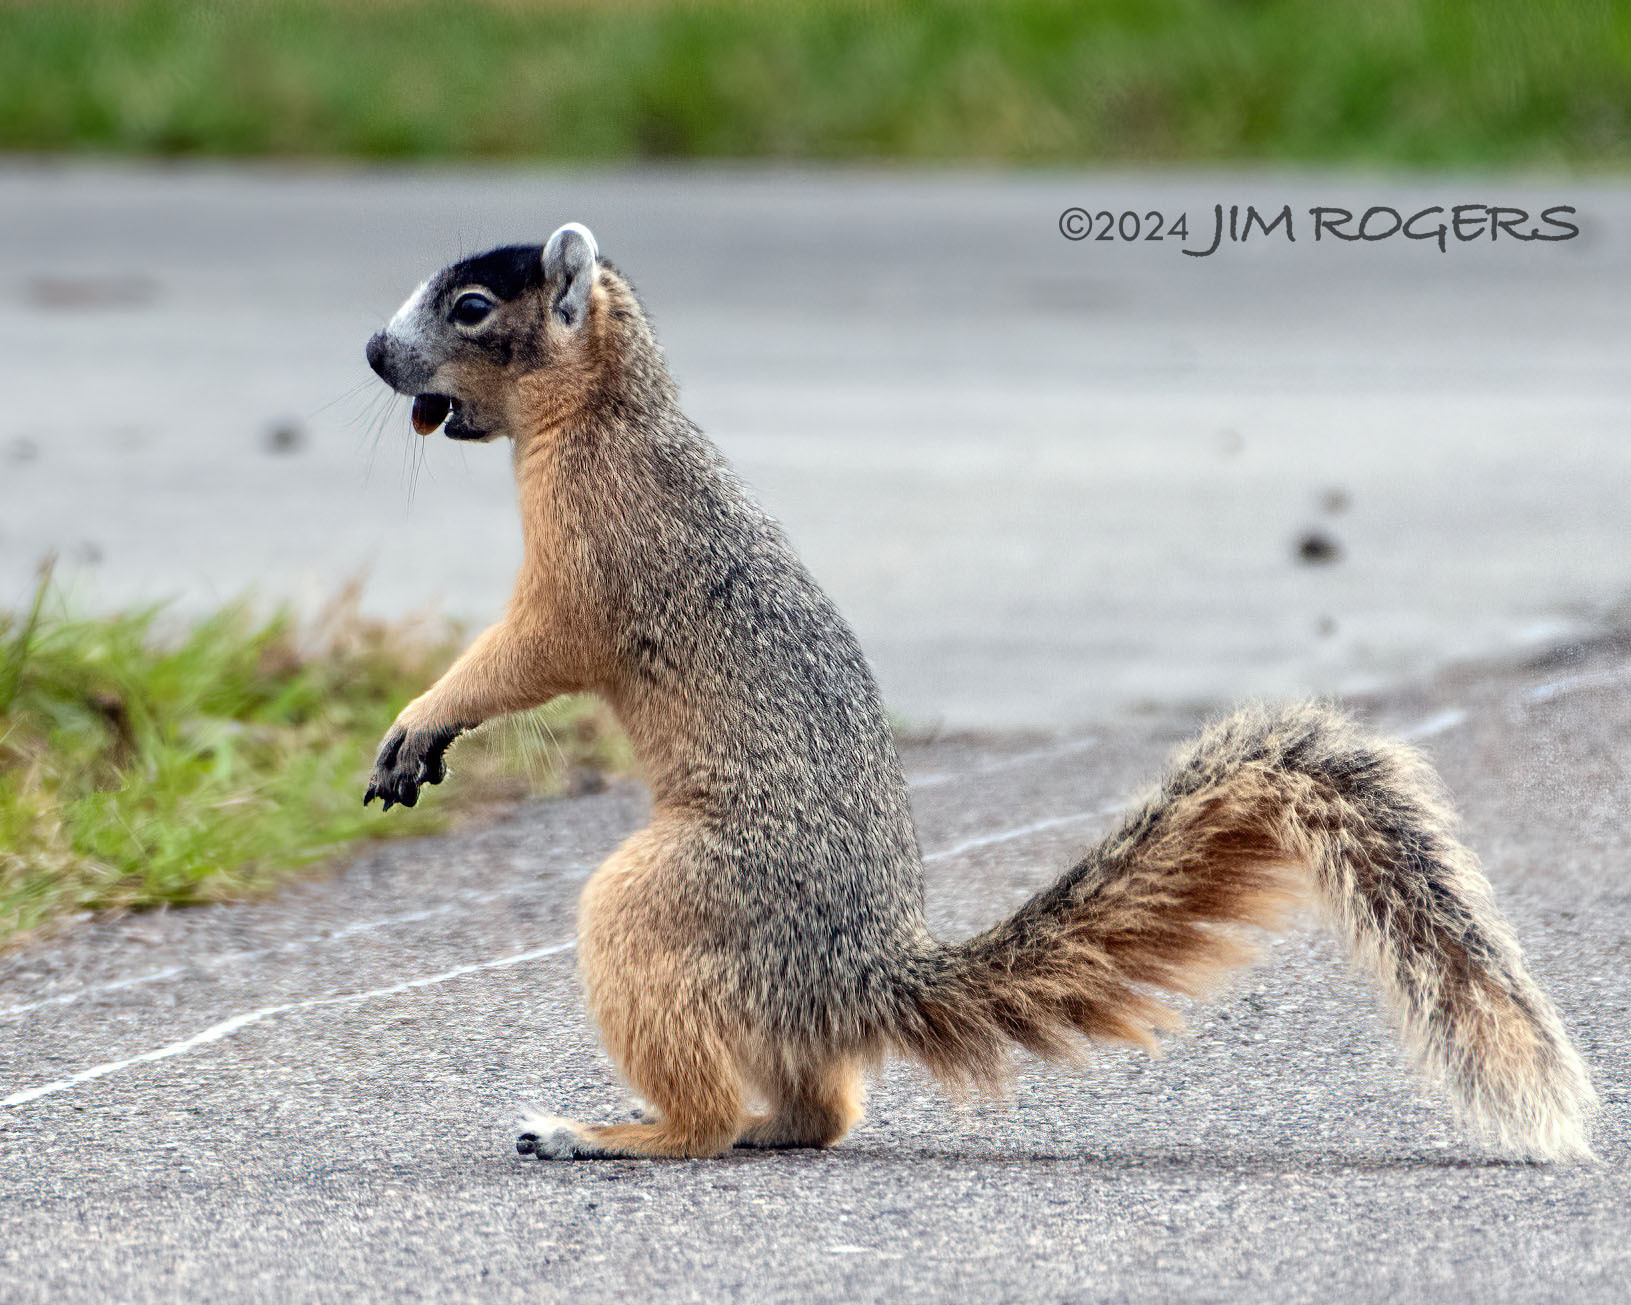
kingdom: Animalia
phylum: Chordata
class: Mammalia
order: Rodentia
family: Sciuridae
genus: Sciurus
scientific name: Sciurus niger
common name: Fox squirrel
